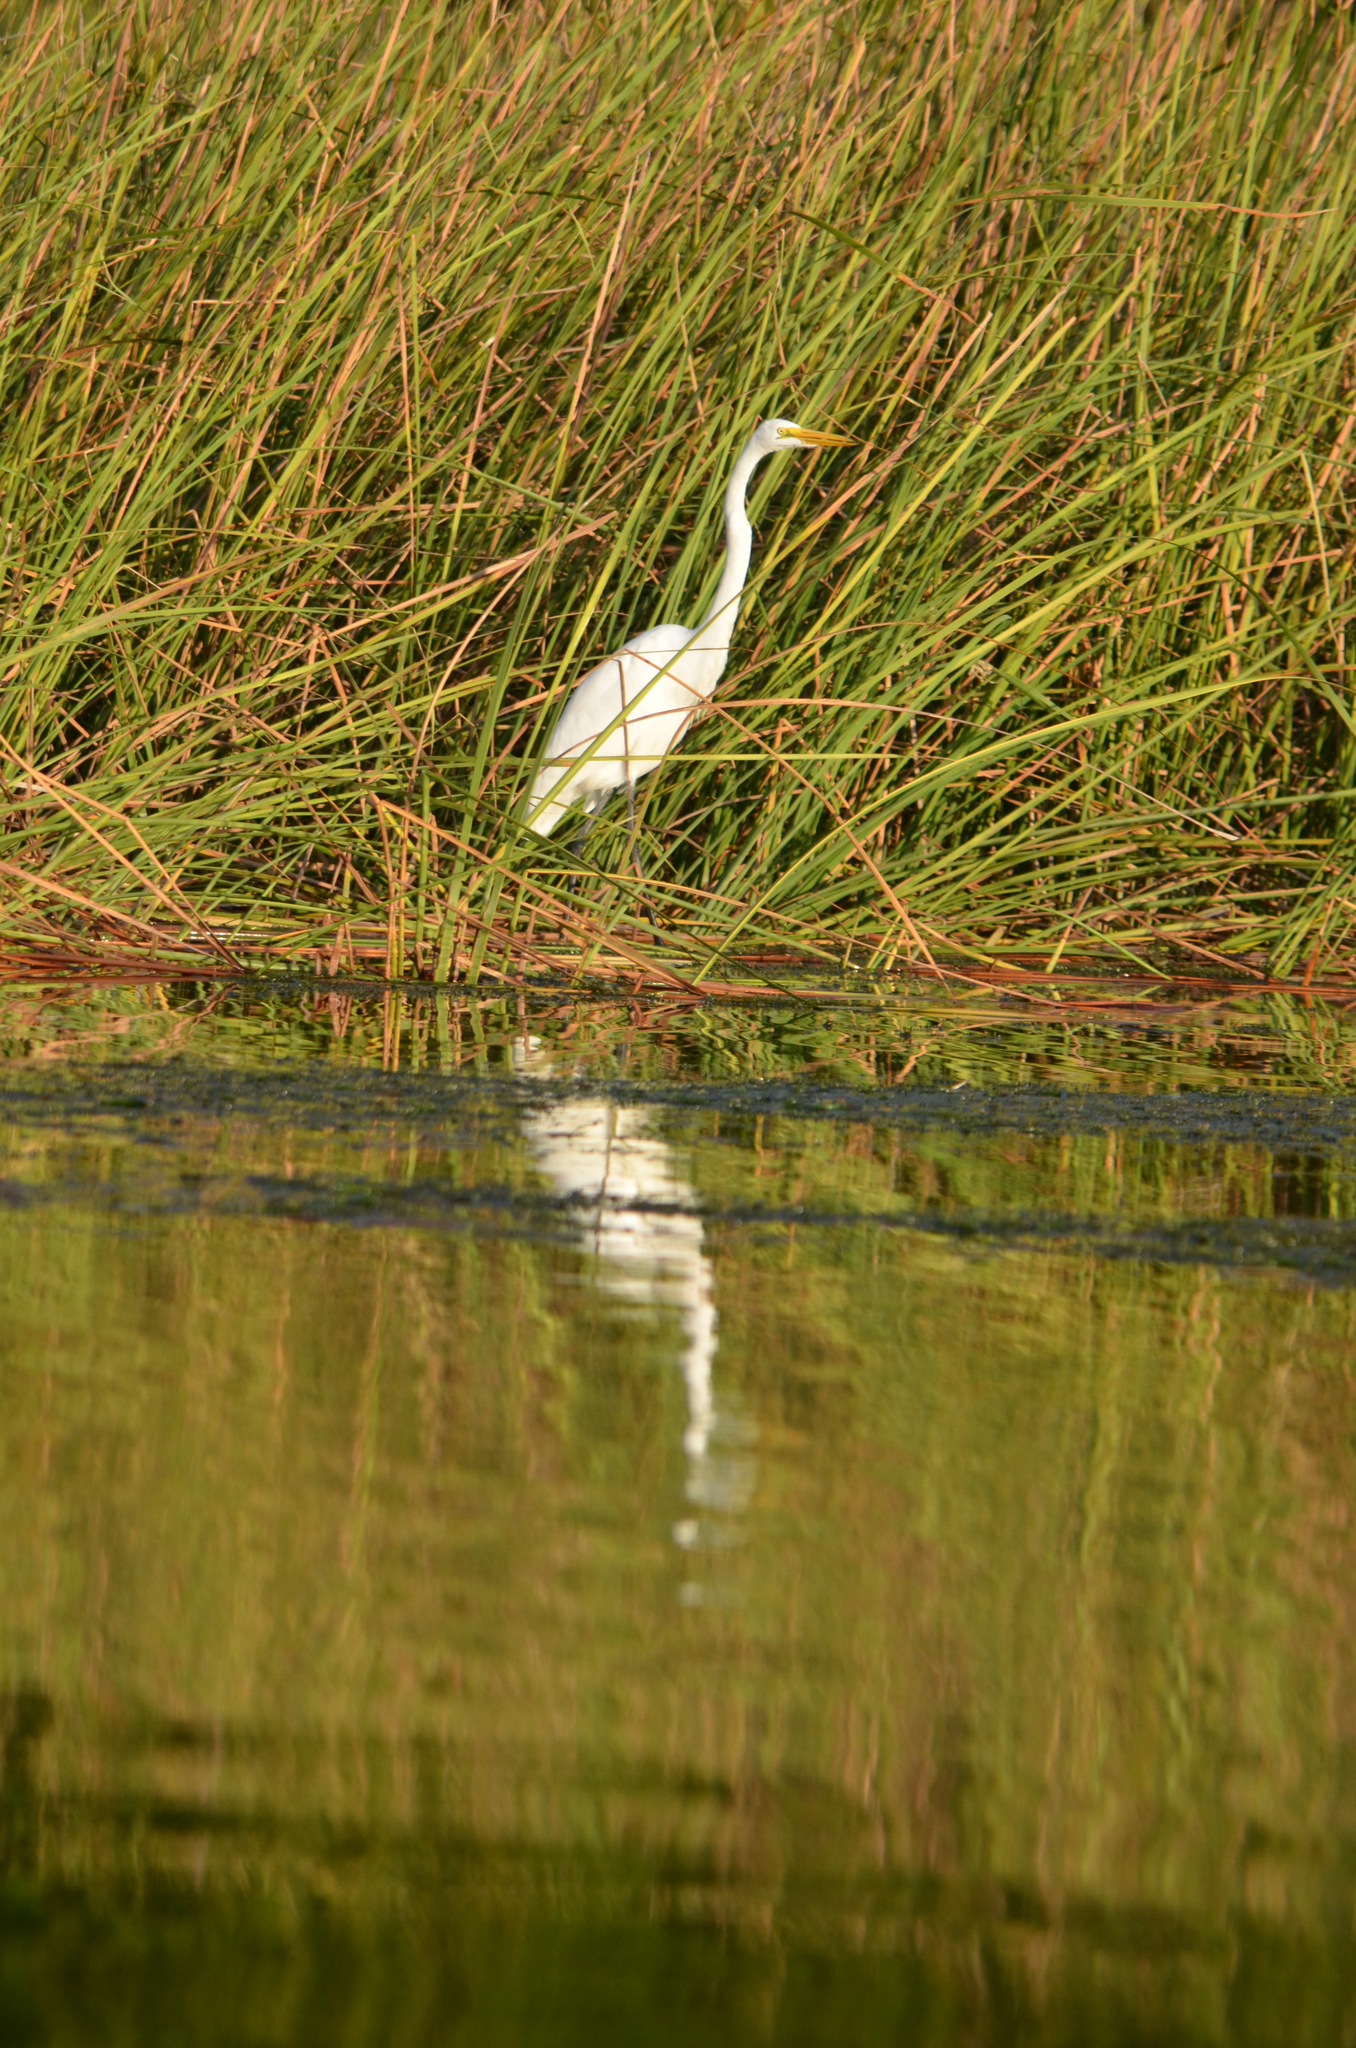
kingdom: Animalia
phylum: Chordata
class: Aves
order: Pelecaniformes
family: Ardeidae
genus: Ardea
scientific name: Ardea alba
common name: Great egret
